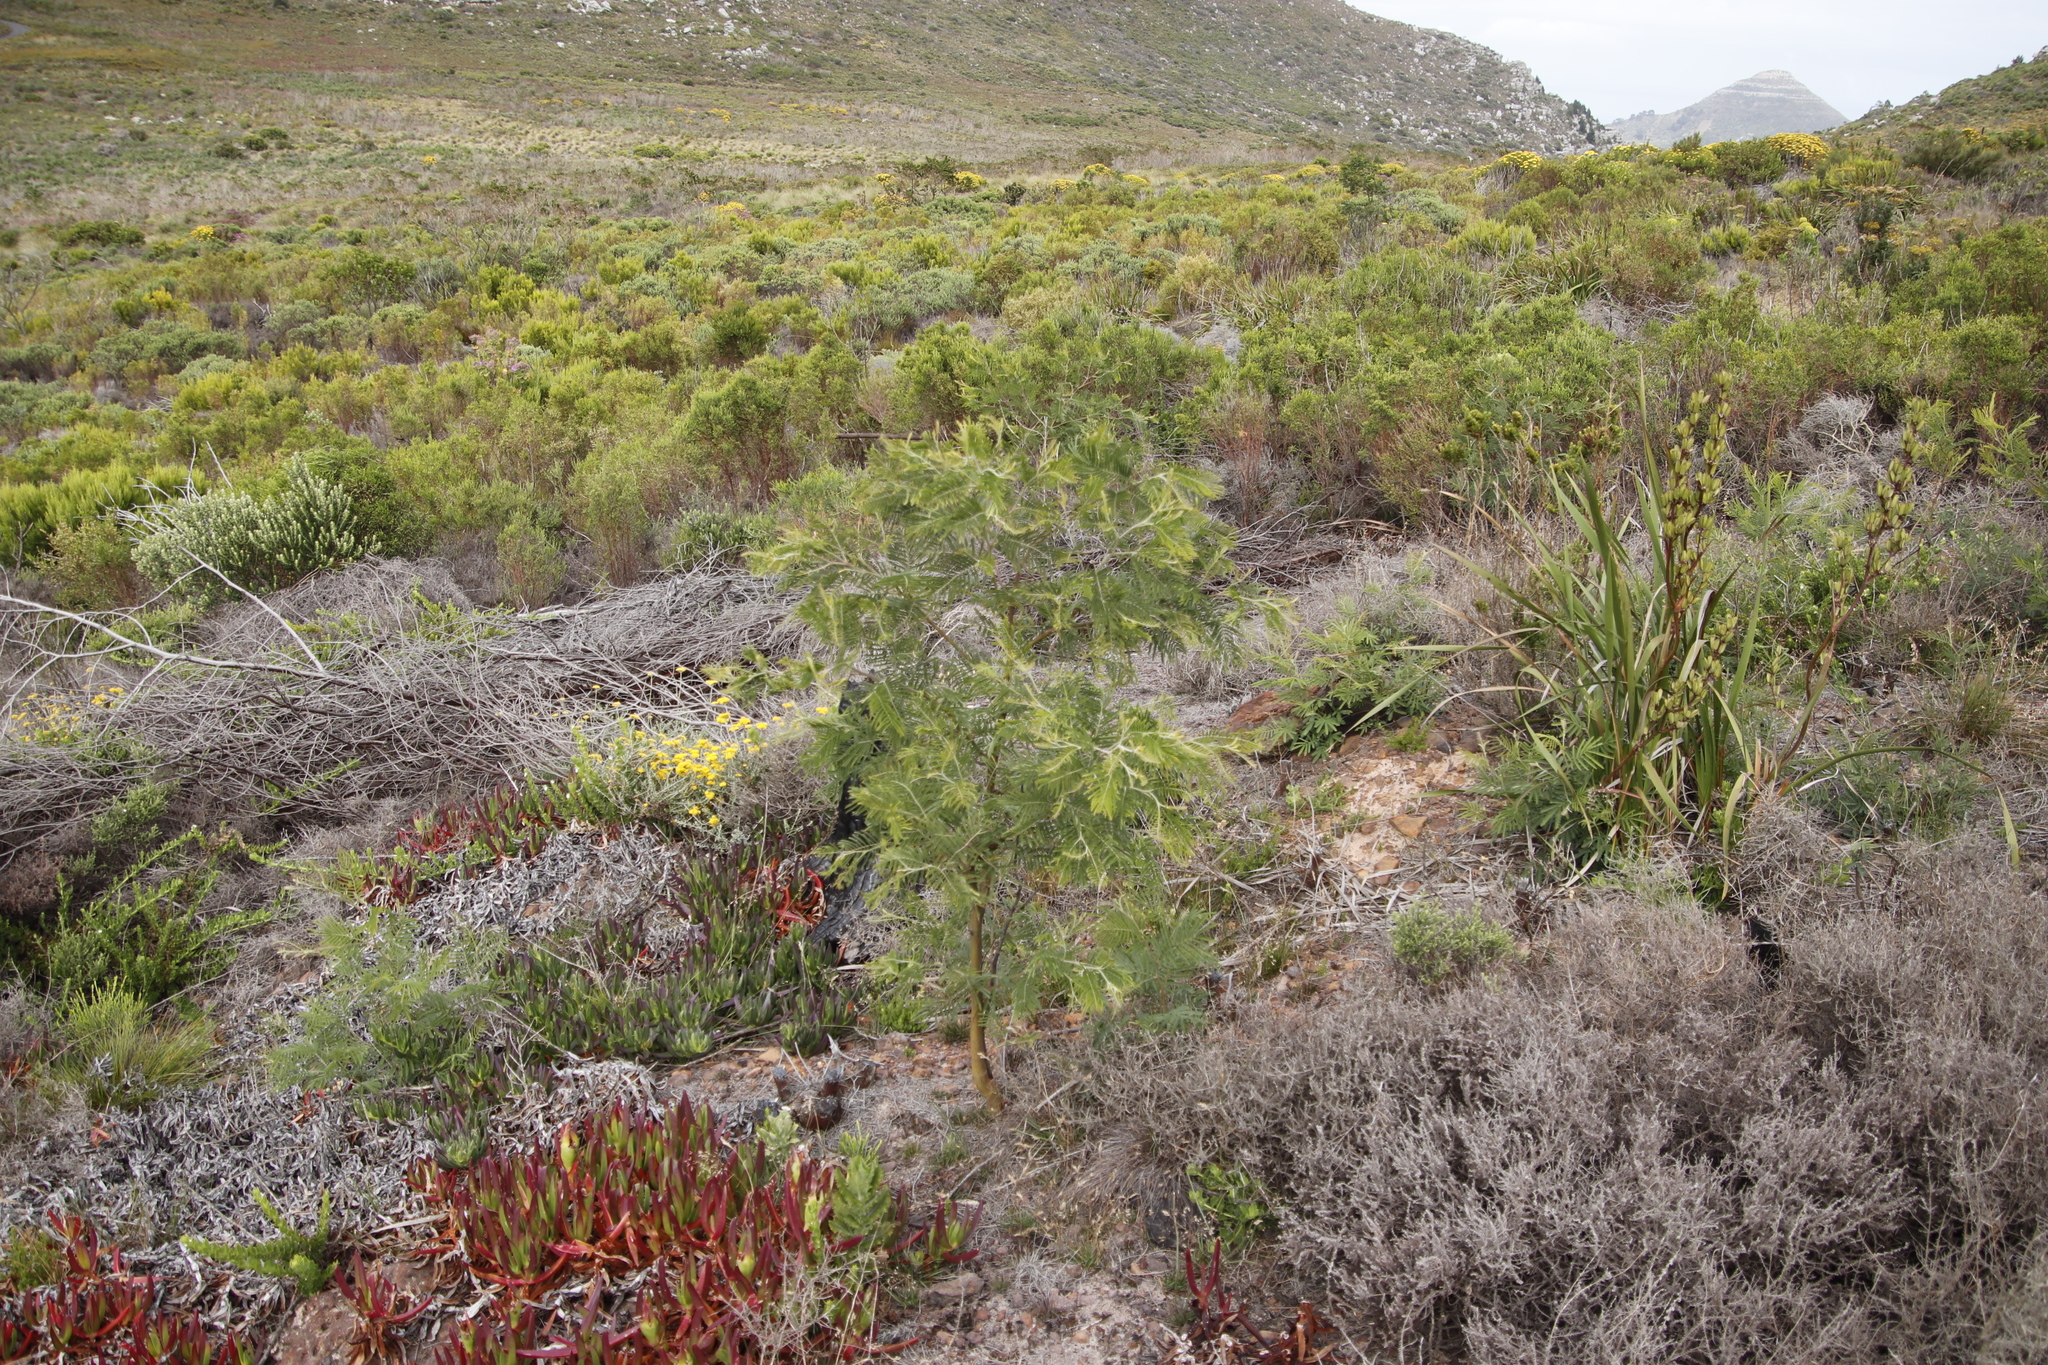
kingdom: Plantae
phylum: Tracheophyta
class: Magnoliopsida
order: Fabales
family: Fabaceae
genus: Acacia
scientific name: Acacia mearnsii
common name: Black wattle
